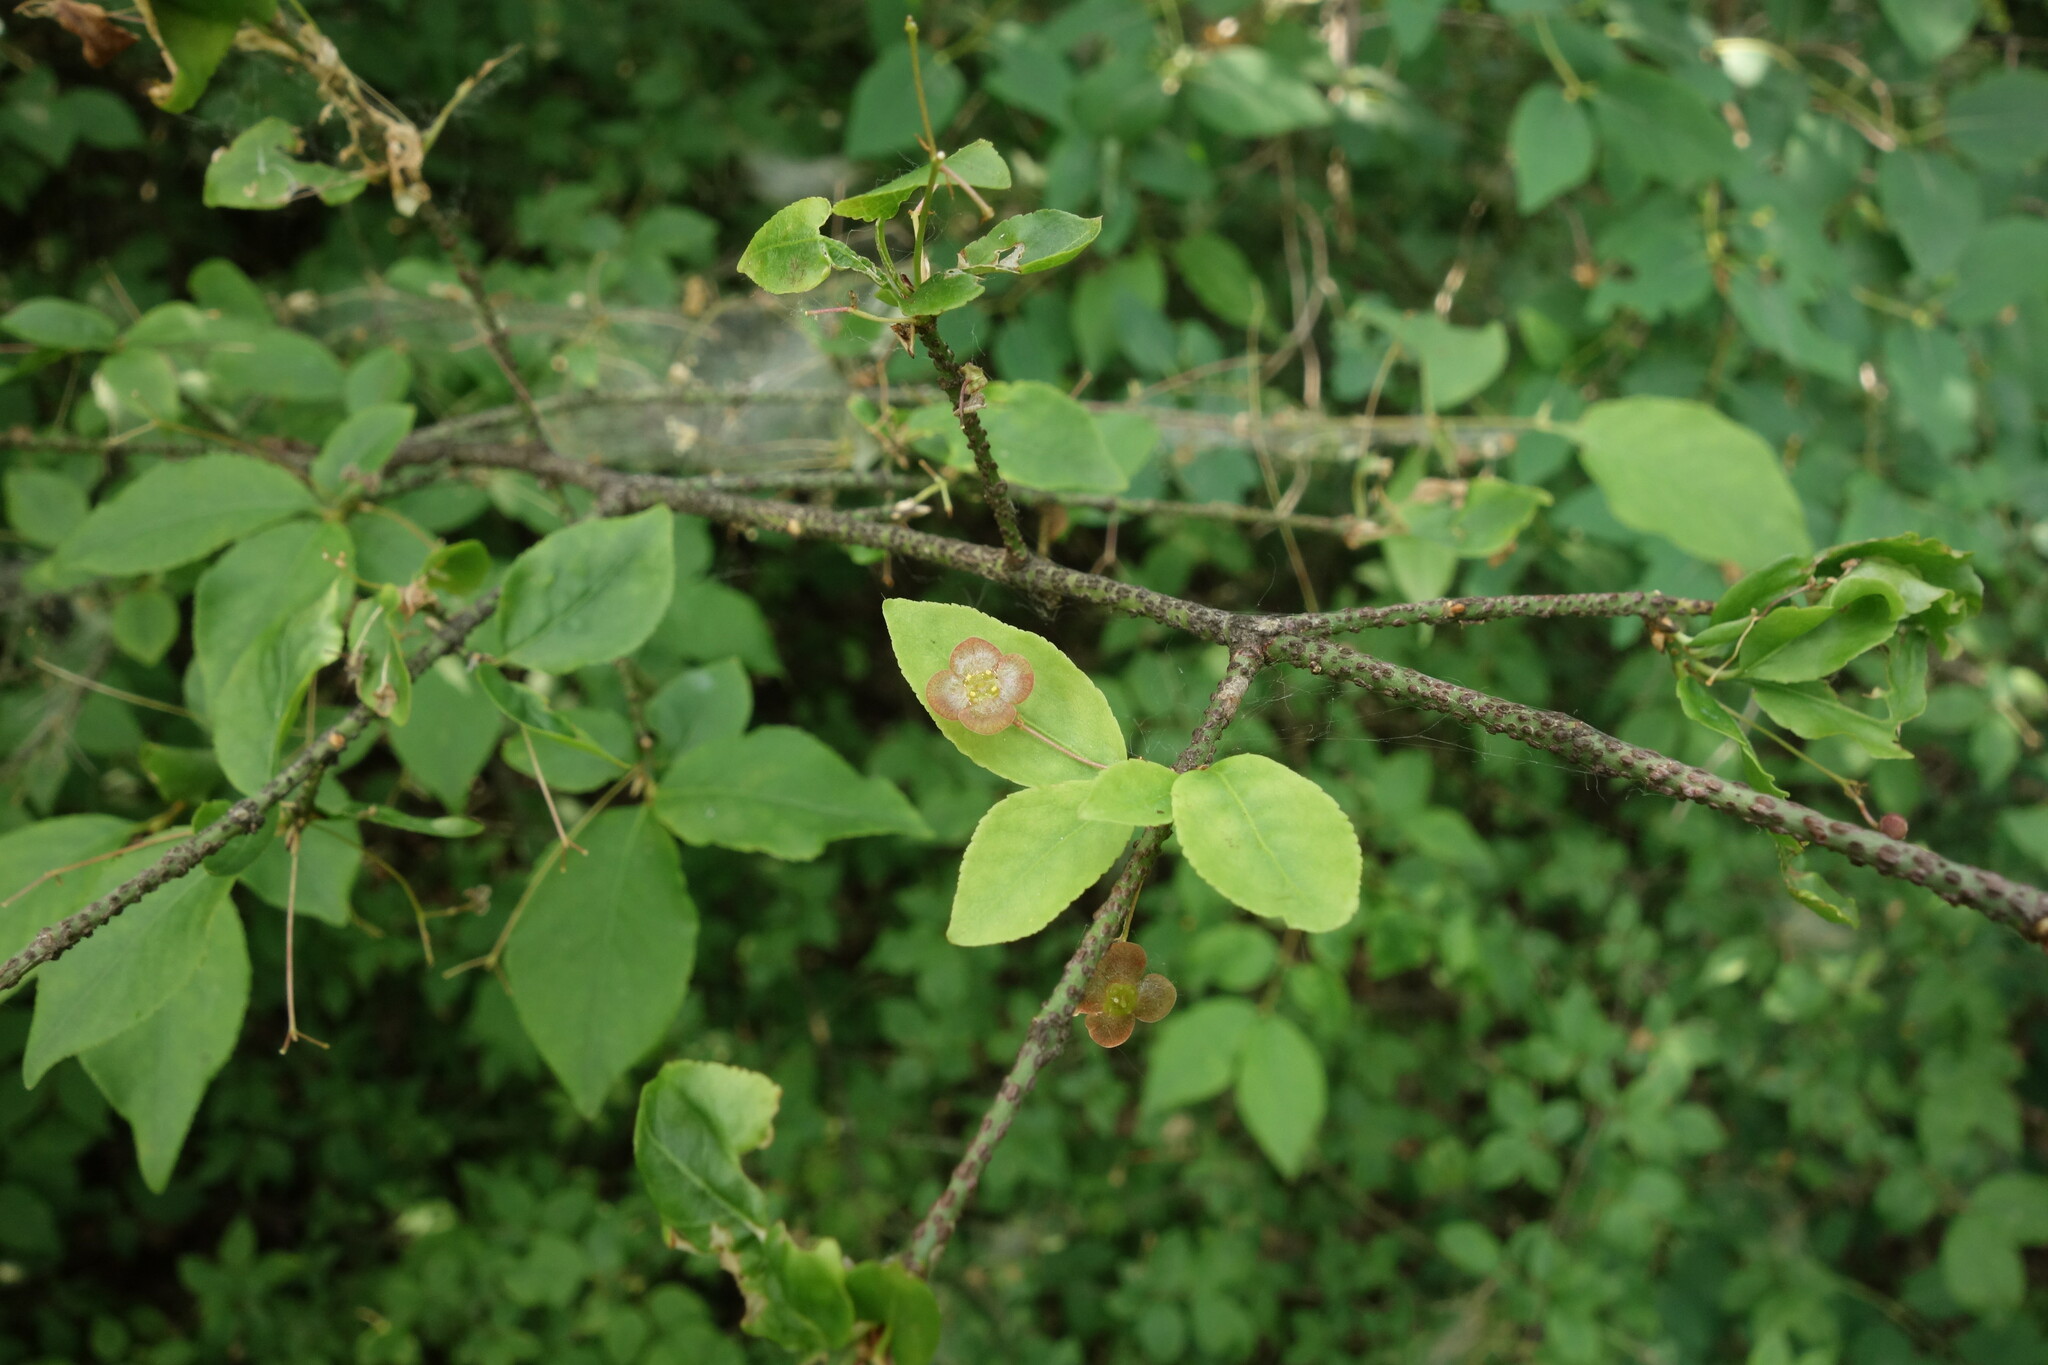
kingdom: Plantae
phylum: Tracheophyta
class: Magnoliopsida
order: Celastrales
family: Celastraceae
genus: Euonymus
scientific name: Euonymus verrucosus
